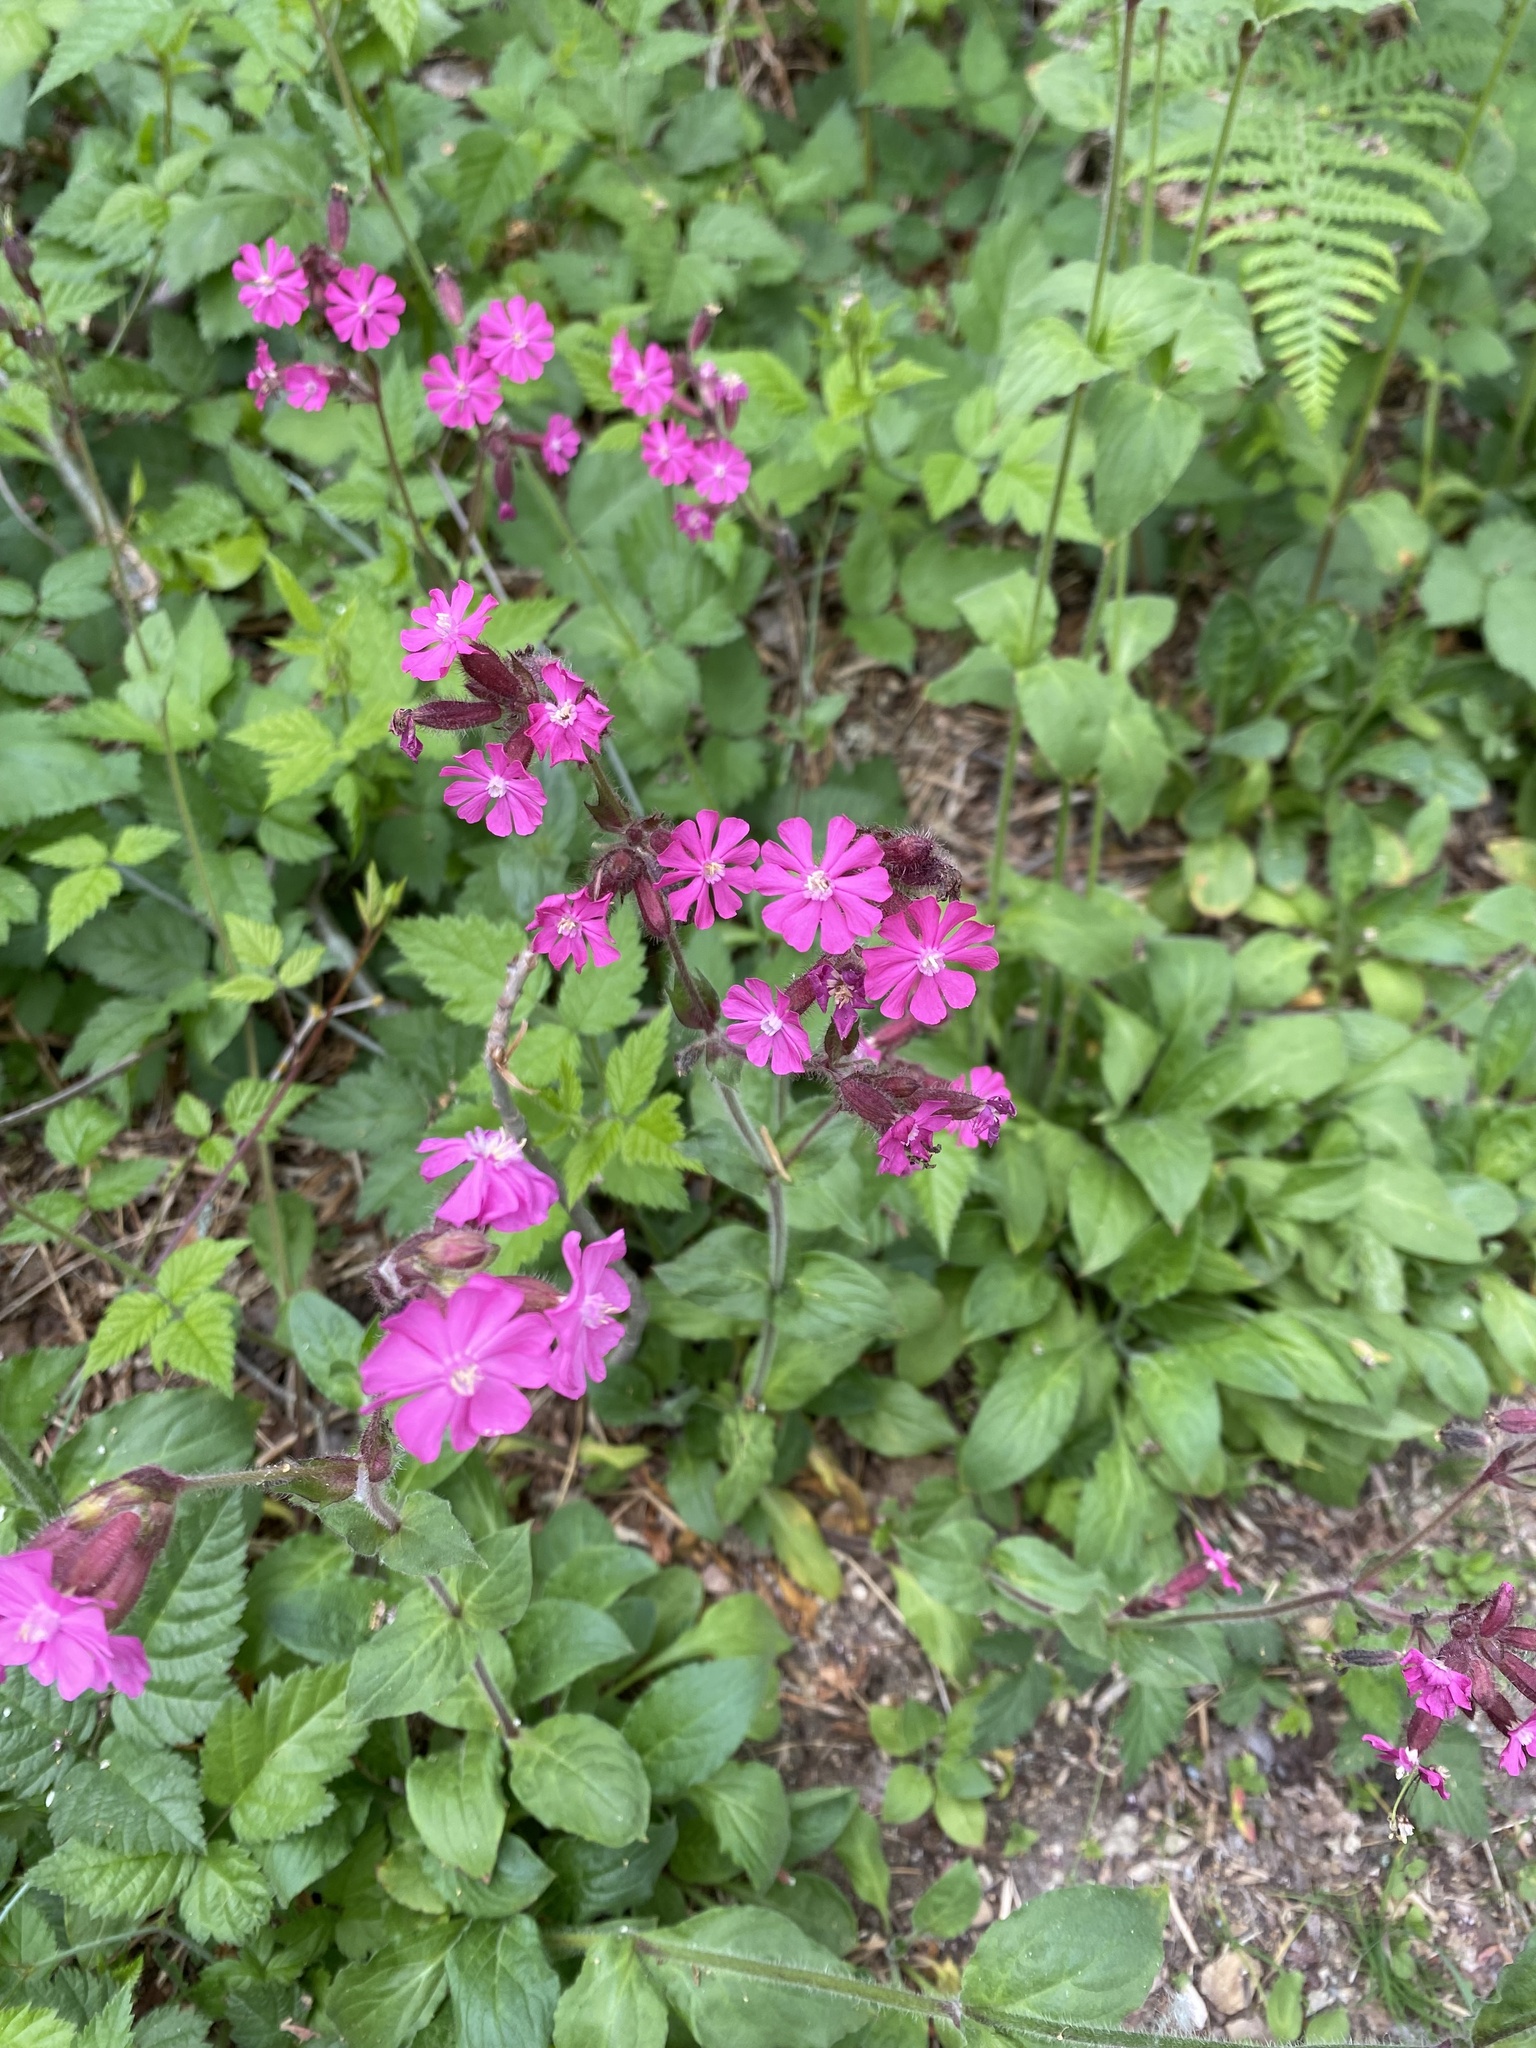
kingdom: Plantae
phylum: Tracheophyta
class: Magnoliopsida
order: Caryophyllales
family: Caryophyllaceae
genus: Silene
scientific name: Silene dioica
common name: Red campion
